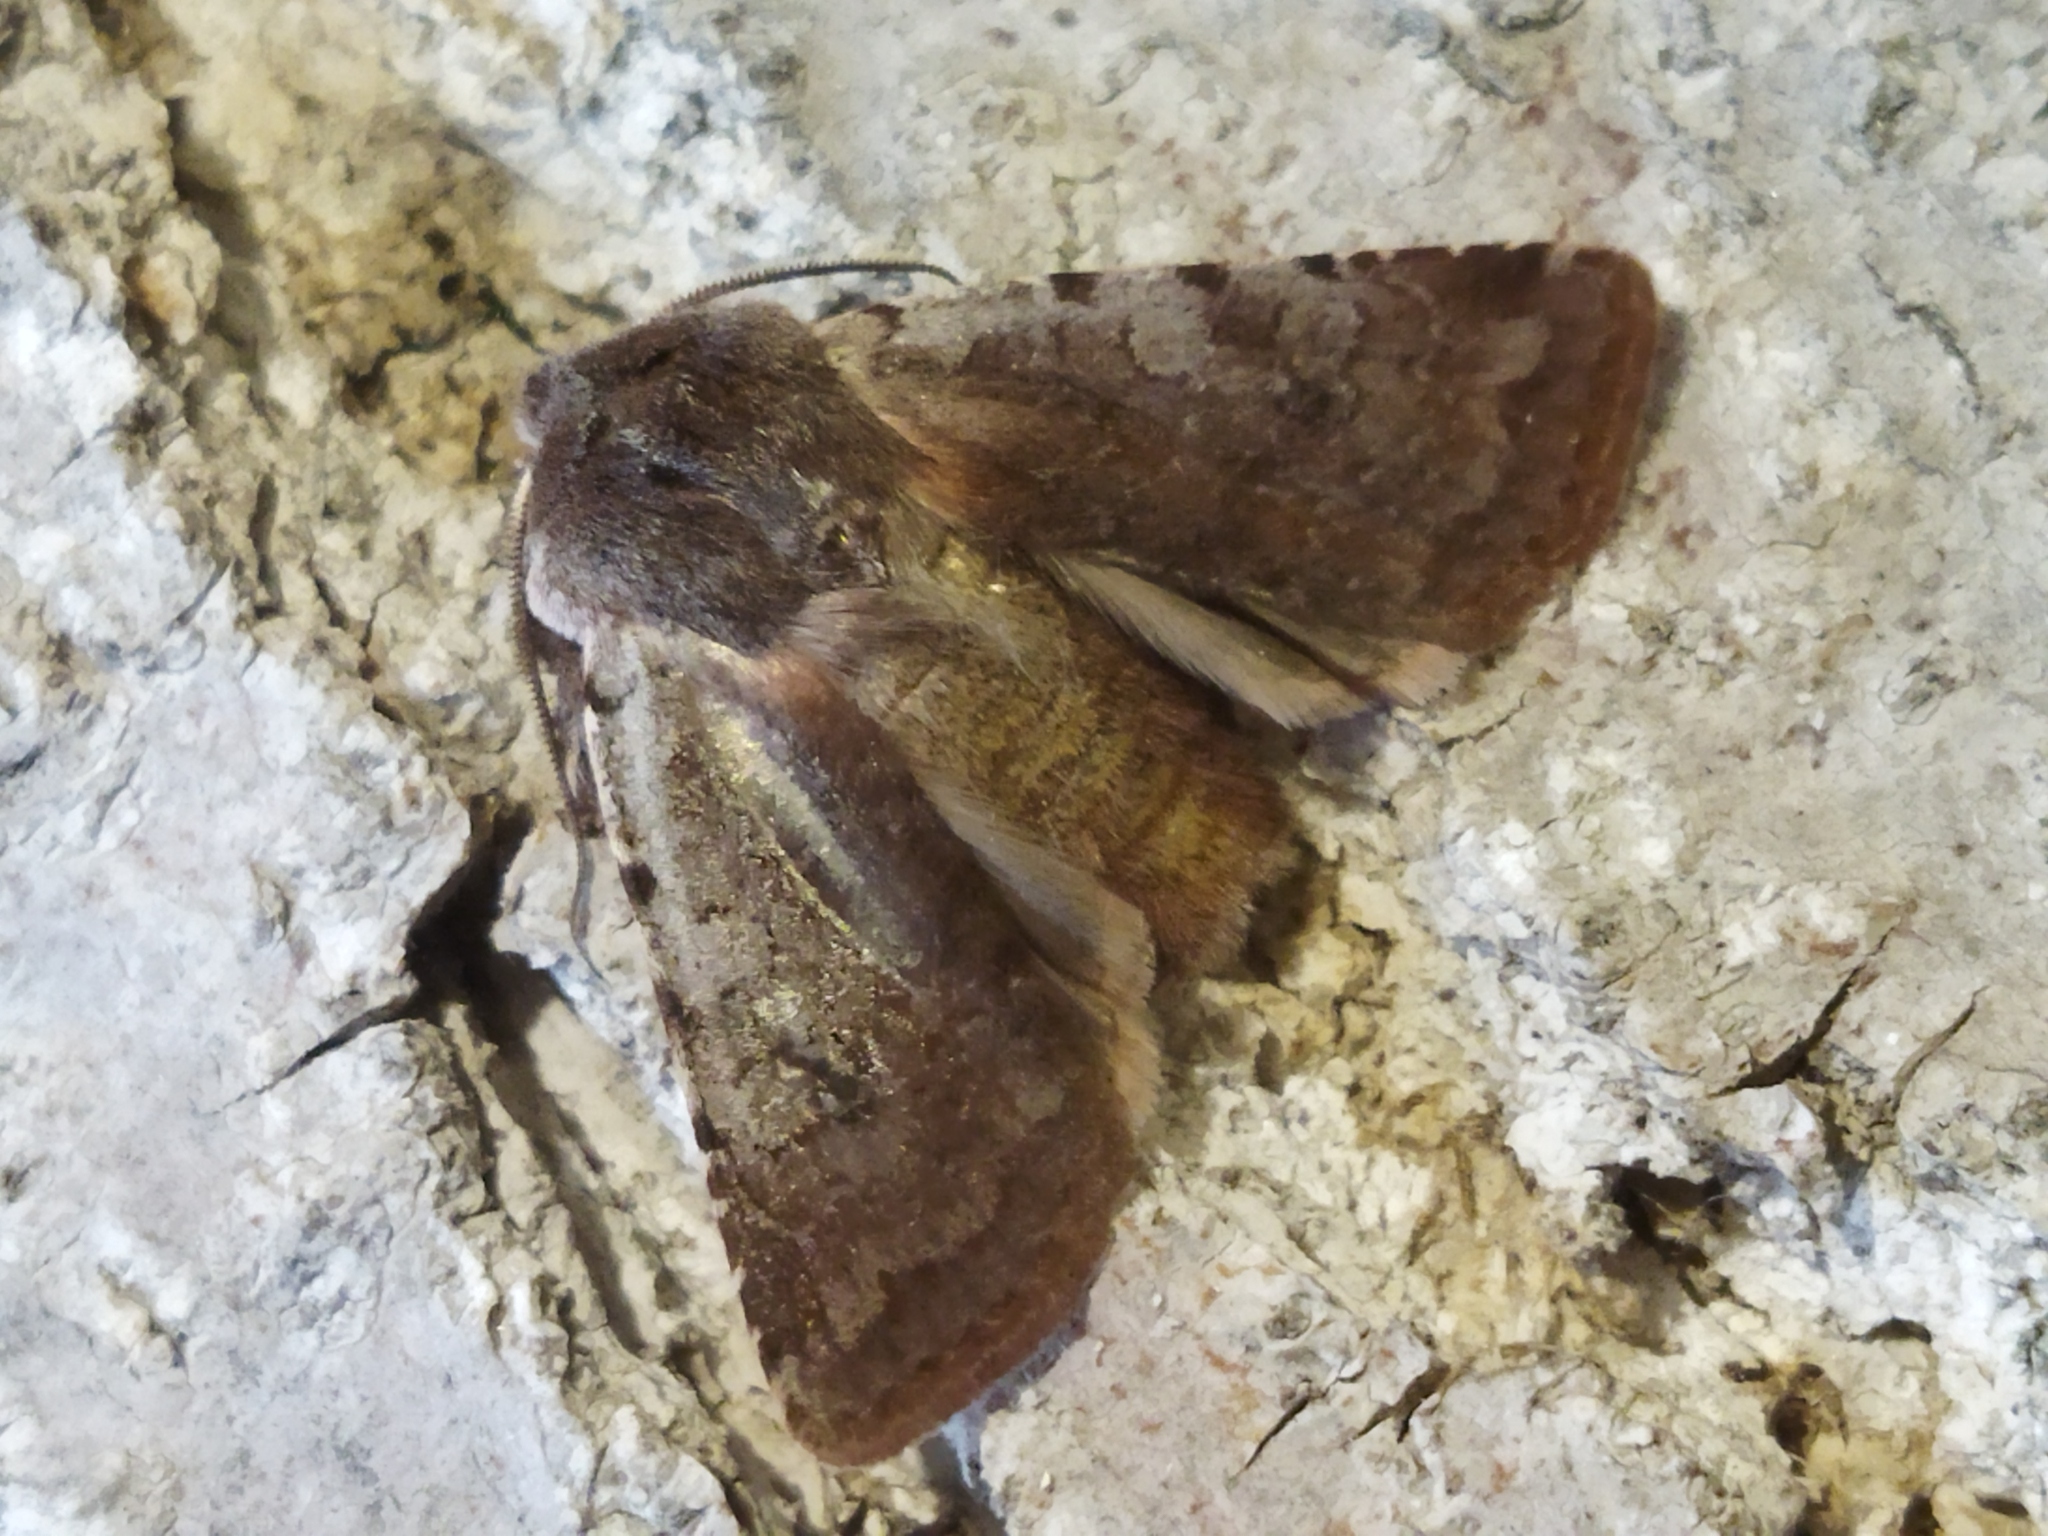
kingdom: Animalia
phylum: Arthropoda
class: Insecta
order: Lepidoptera
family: Noctuidae
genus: Cerastis
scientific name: Cerastis rubricosa
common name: Red chestnut
